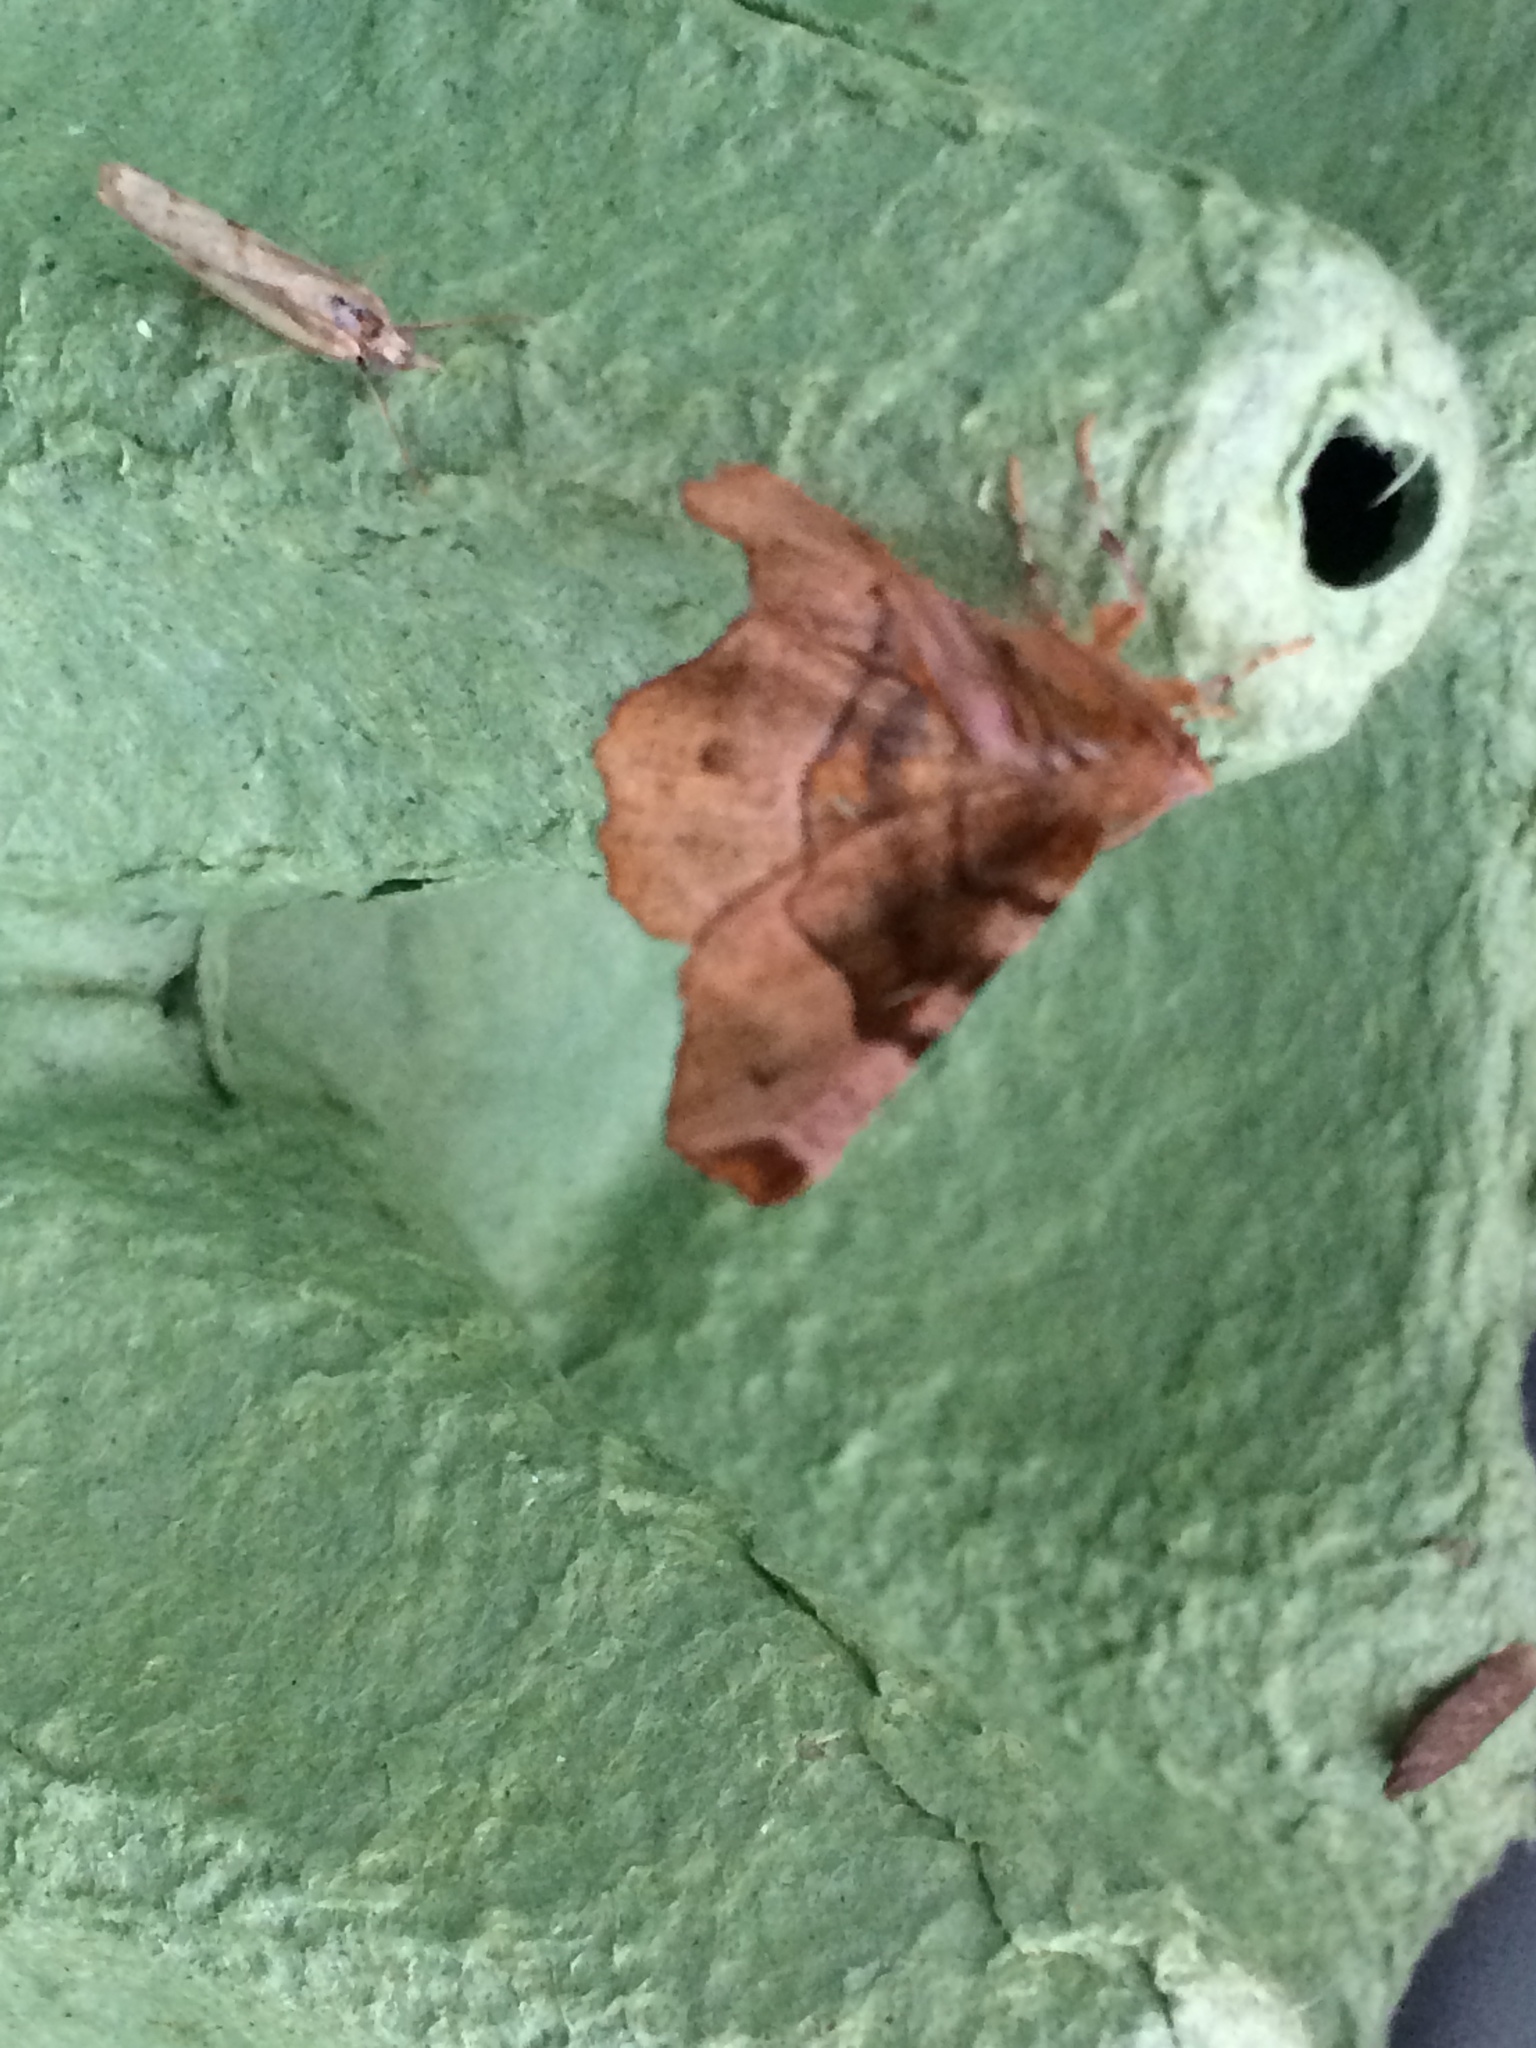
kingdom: Animalia
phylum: Arthropoda
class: Insecta
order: Lepidoptera
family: Geometridae
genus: Selenia
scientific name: Selenia tetralunaria
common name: Purple thorn
